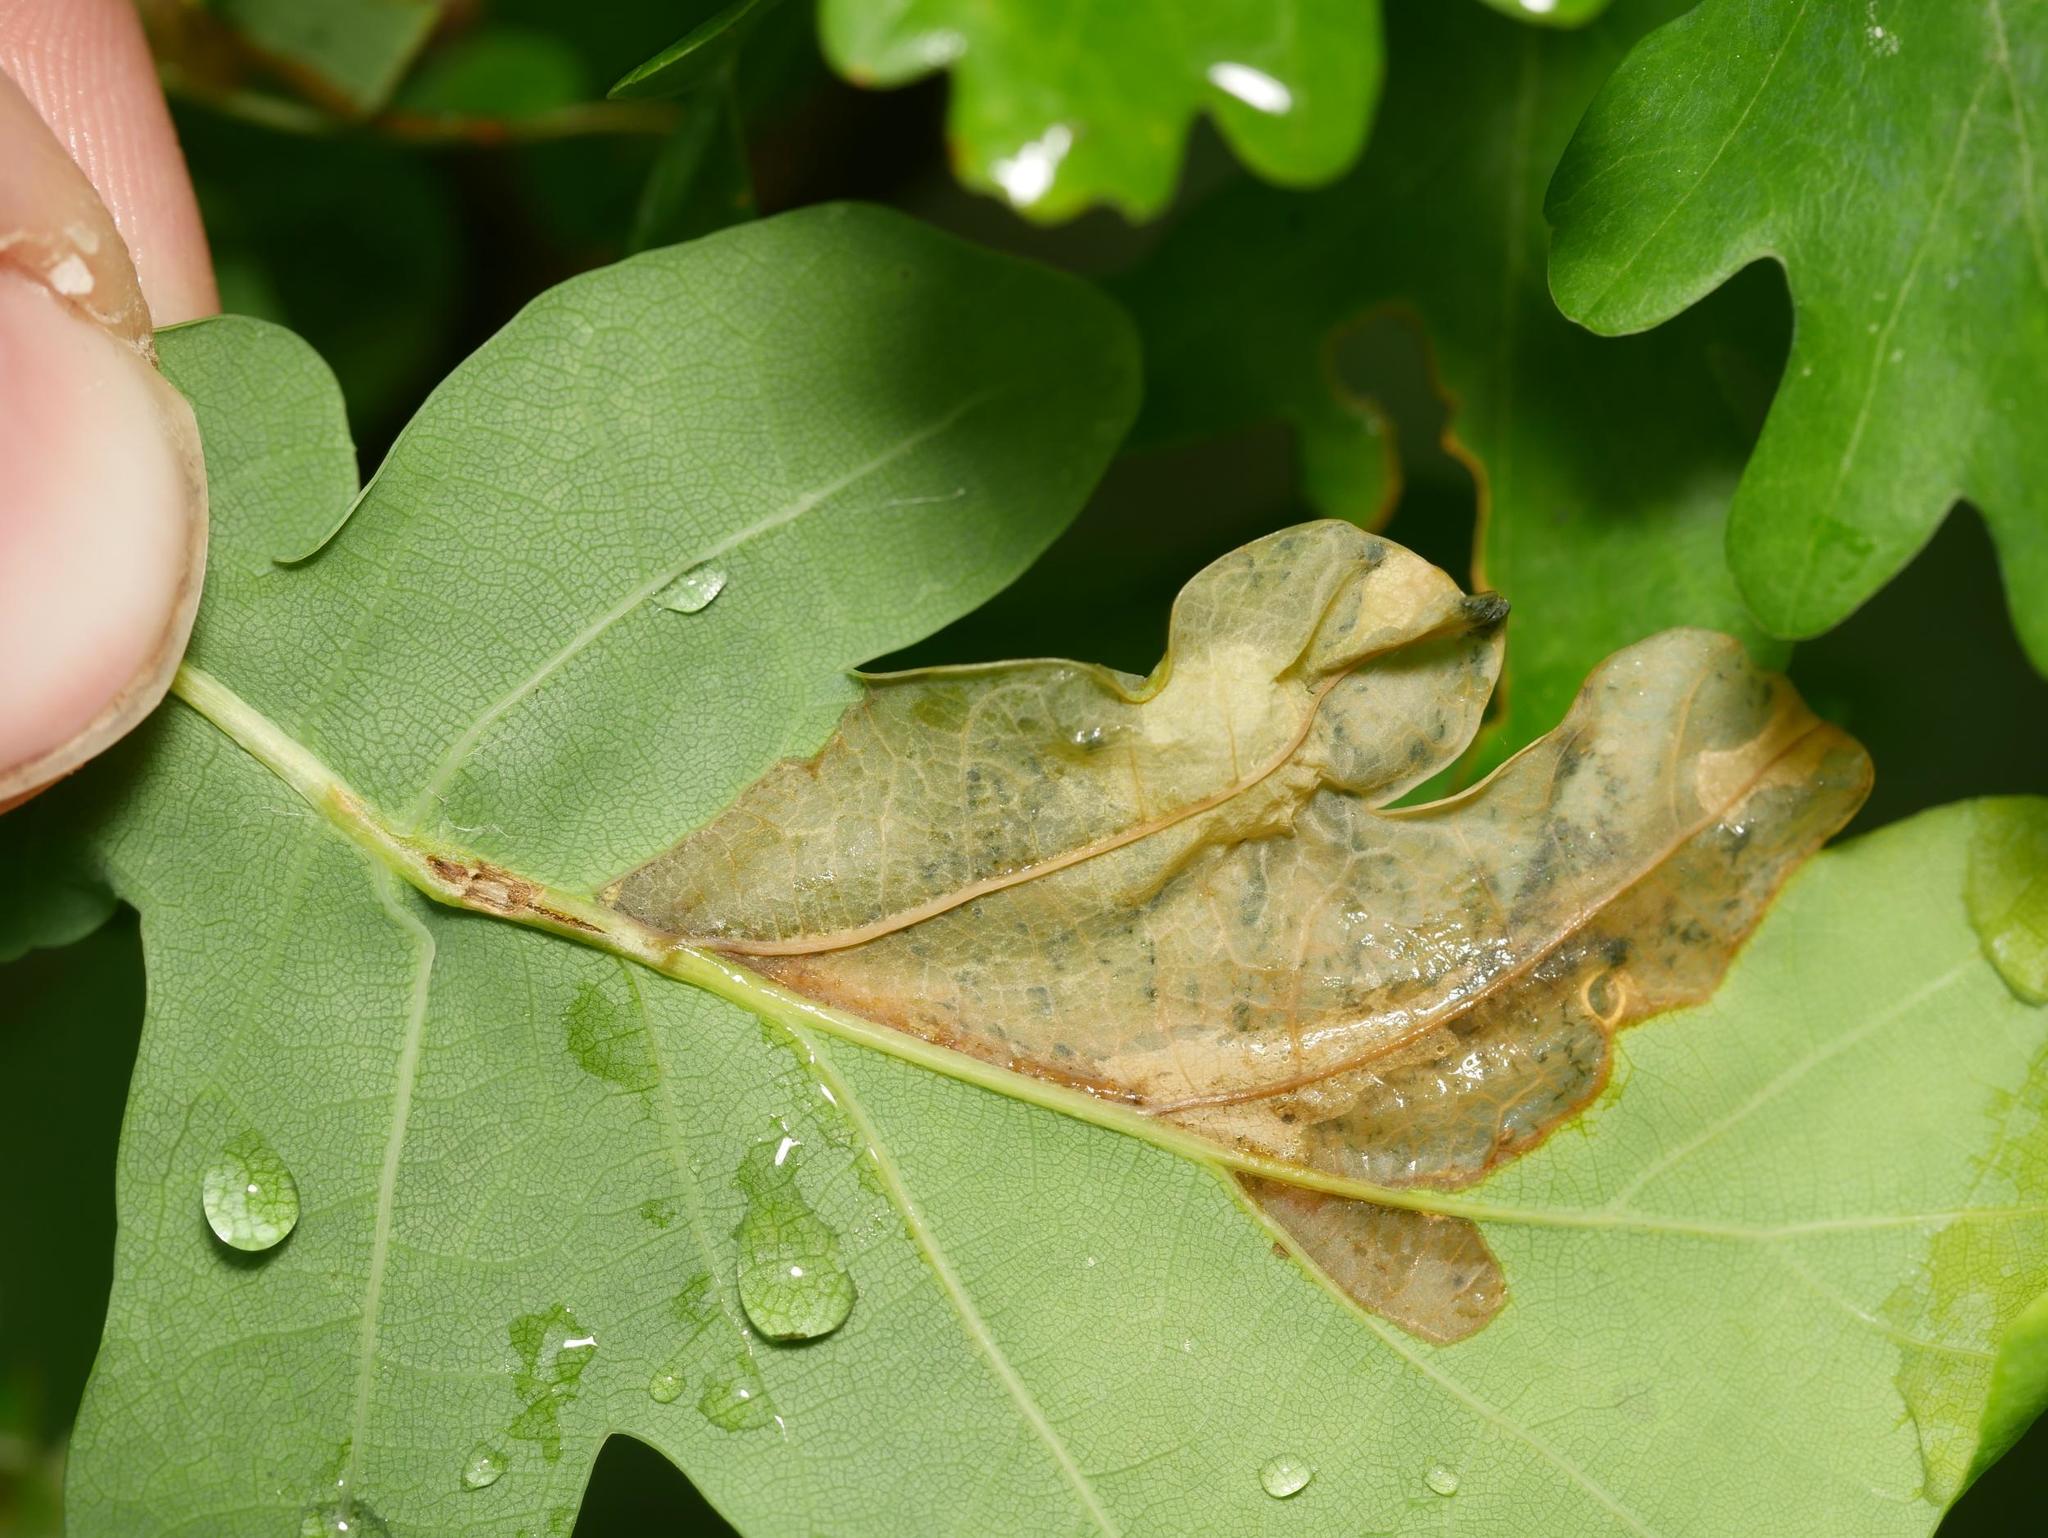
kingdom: Animalia
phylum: Arthropoda
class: Insecta
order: Coleoptera
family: Curculionidae
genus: Orchestes
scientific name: Orchestes quercus
